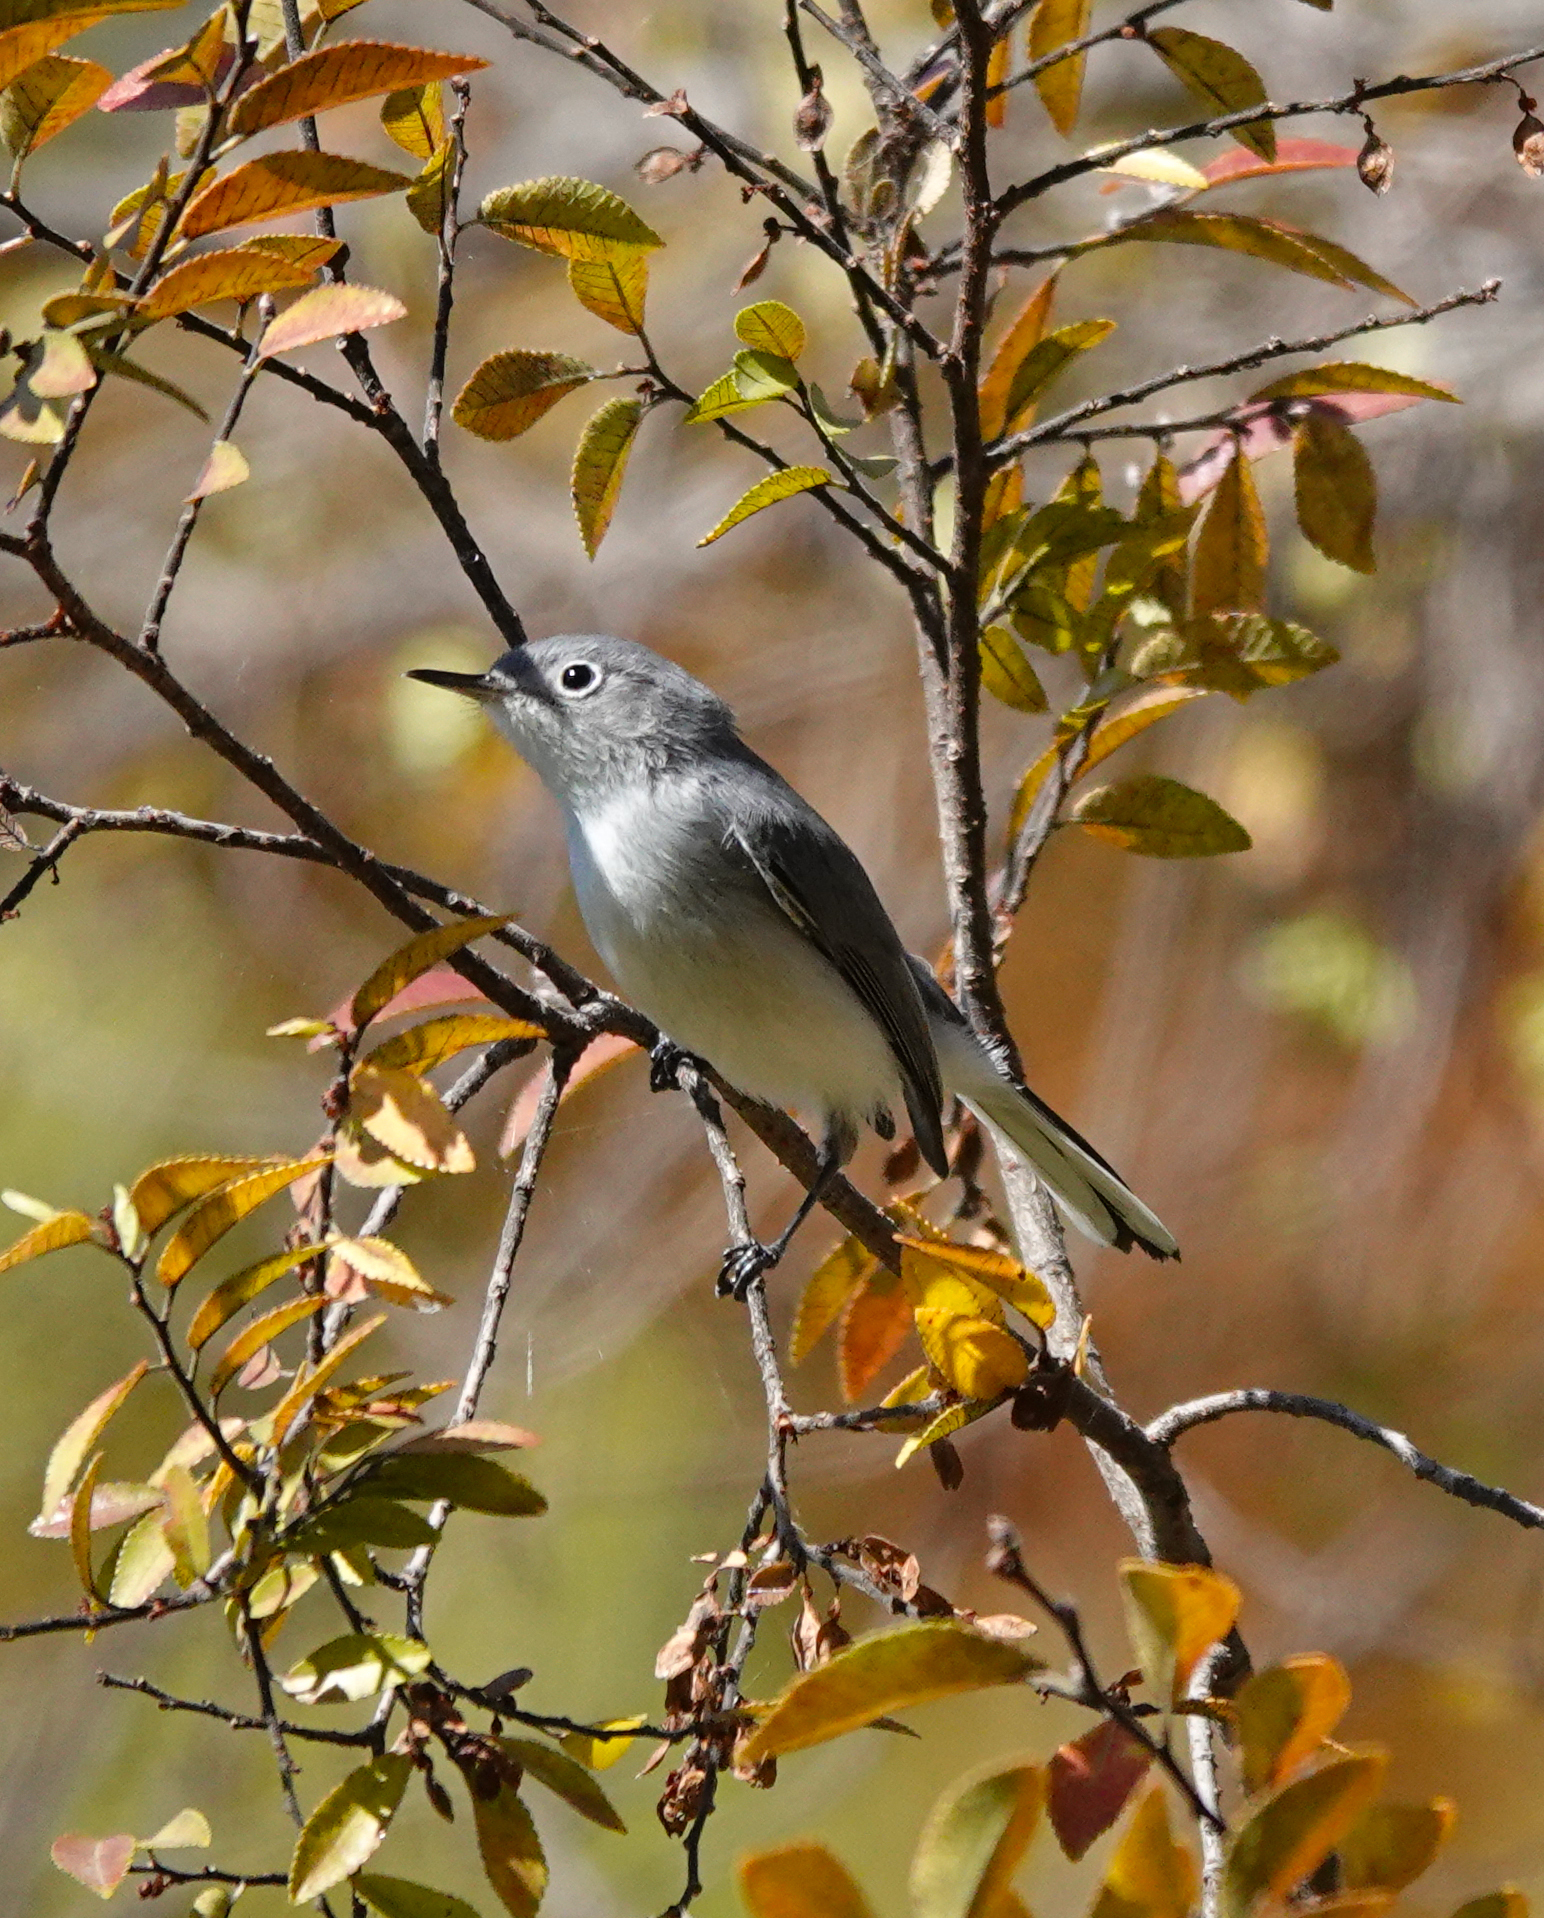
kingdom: Animalia
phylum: Chordata
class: Aves
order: Passeriformes
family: Polioptilidae
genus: Polioptila
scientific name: Polioptila caerulea
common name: Blue-gray gnatcatcher
